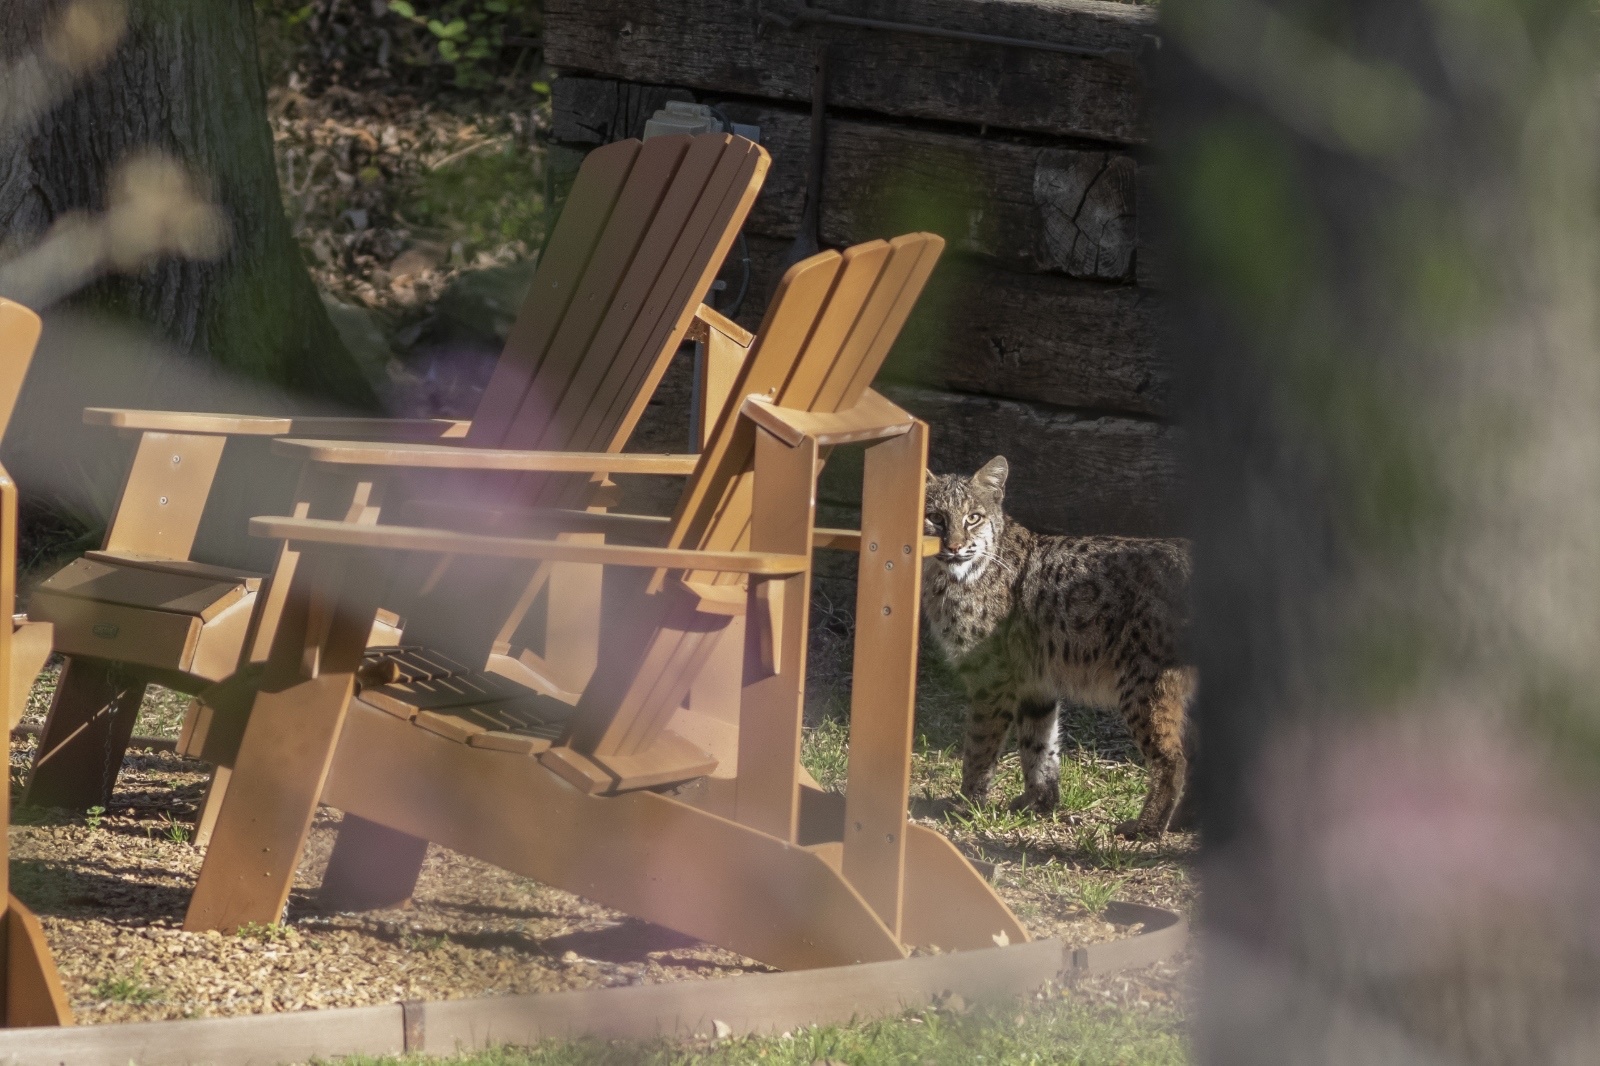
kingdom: Animalia
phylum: Chordata
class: Mammalia
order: Carnivora
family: Felidae
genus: Lynx
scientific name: Lynx rufus
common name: Bobcat
